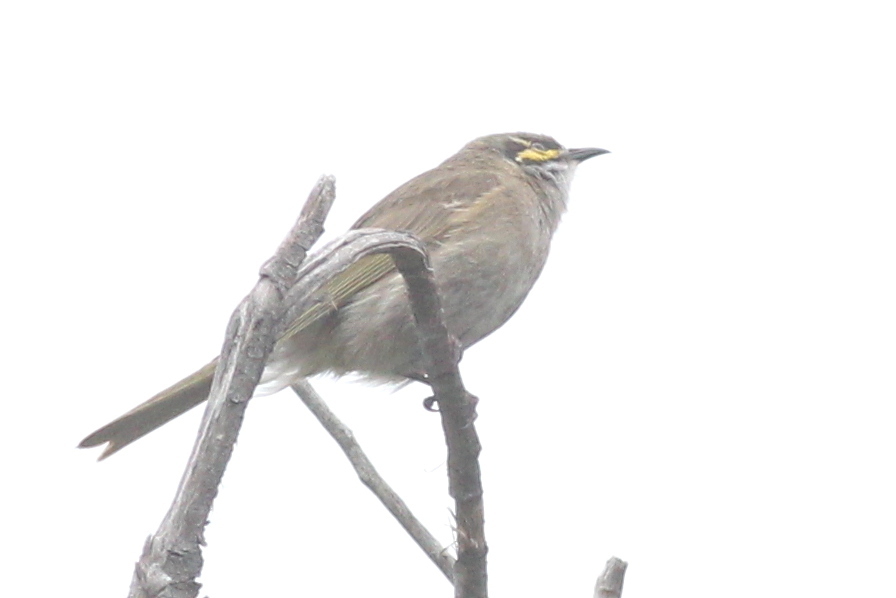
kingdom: Animalia
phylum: Chordata
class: Aves
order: Passeriformes
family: Meliphagidae
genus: Caligavis
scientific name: Caligavis chrysops
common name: Yellow-faced honeyeater
